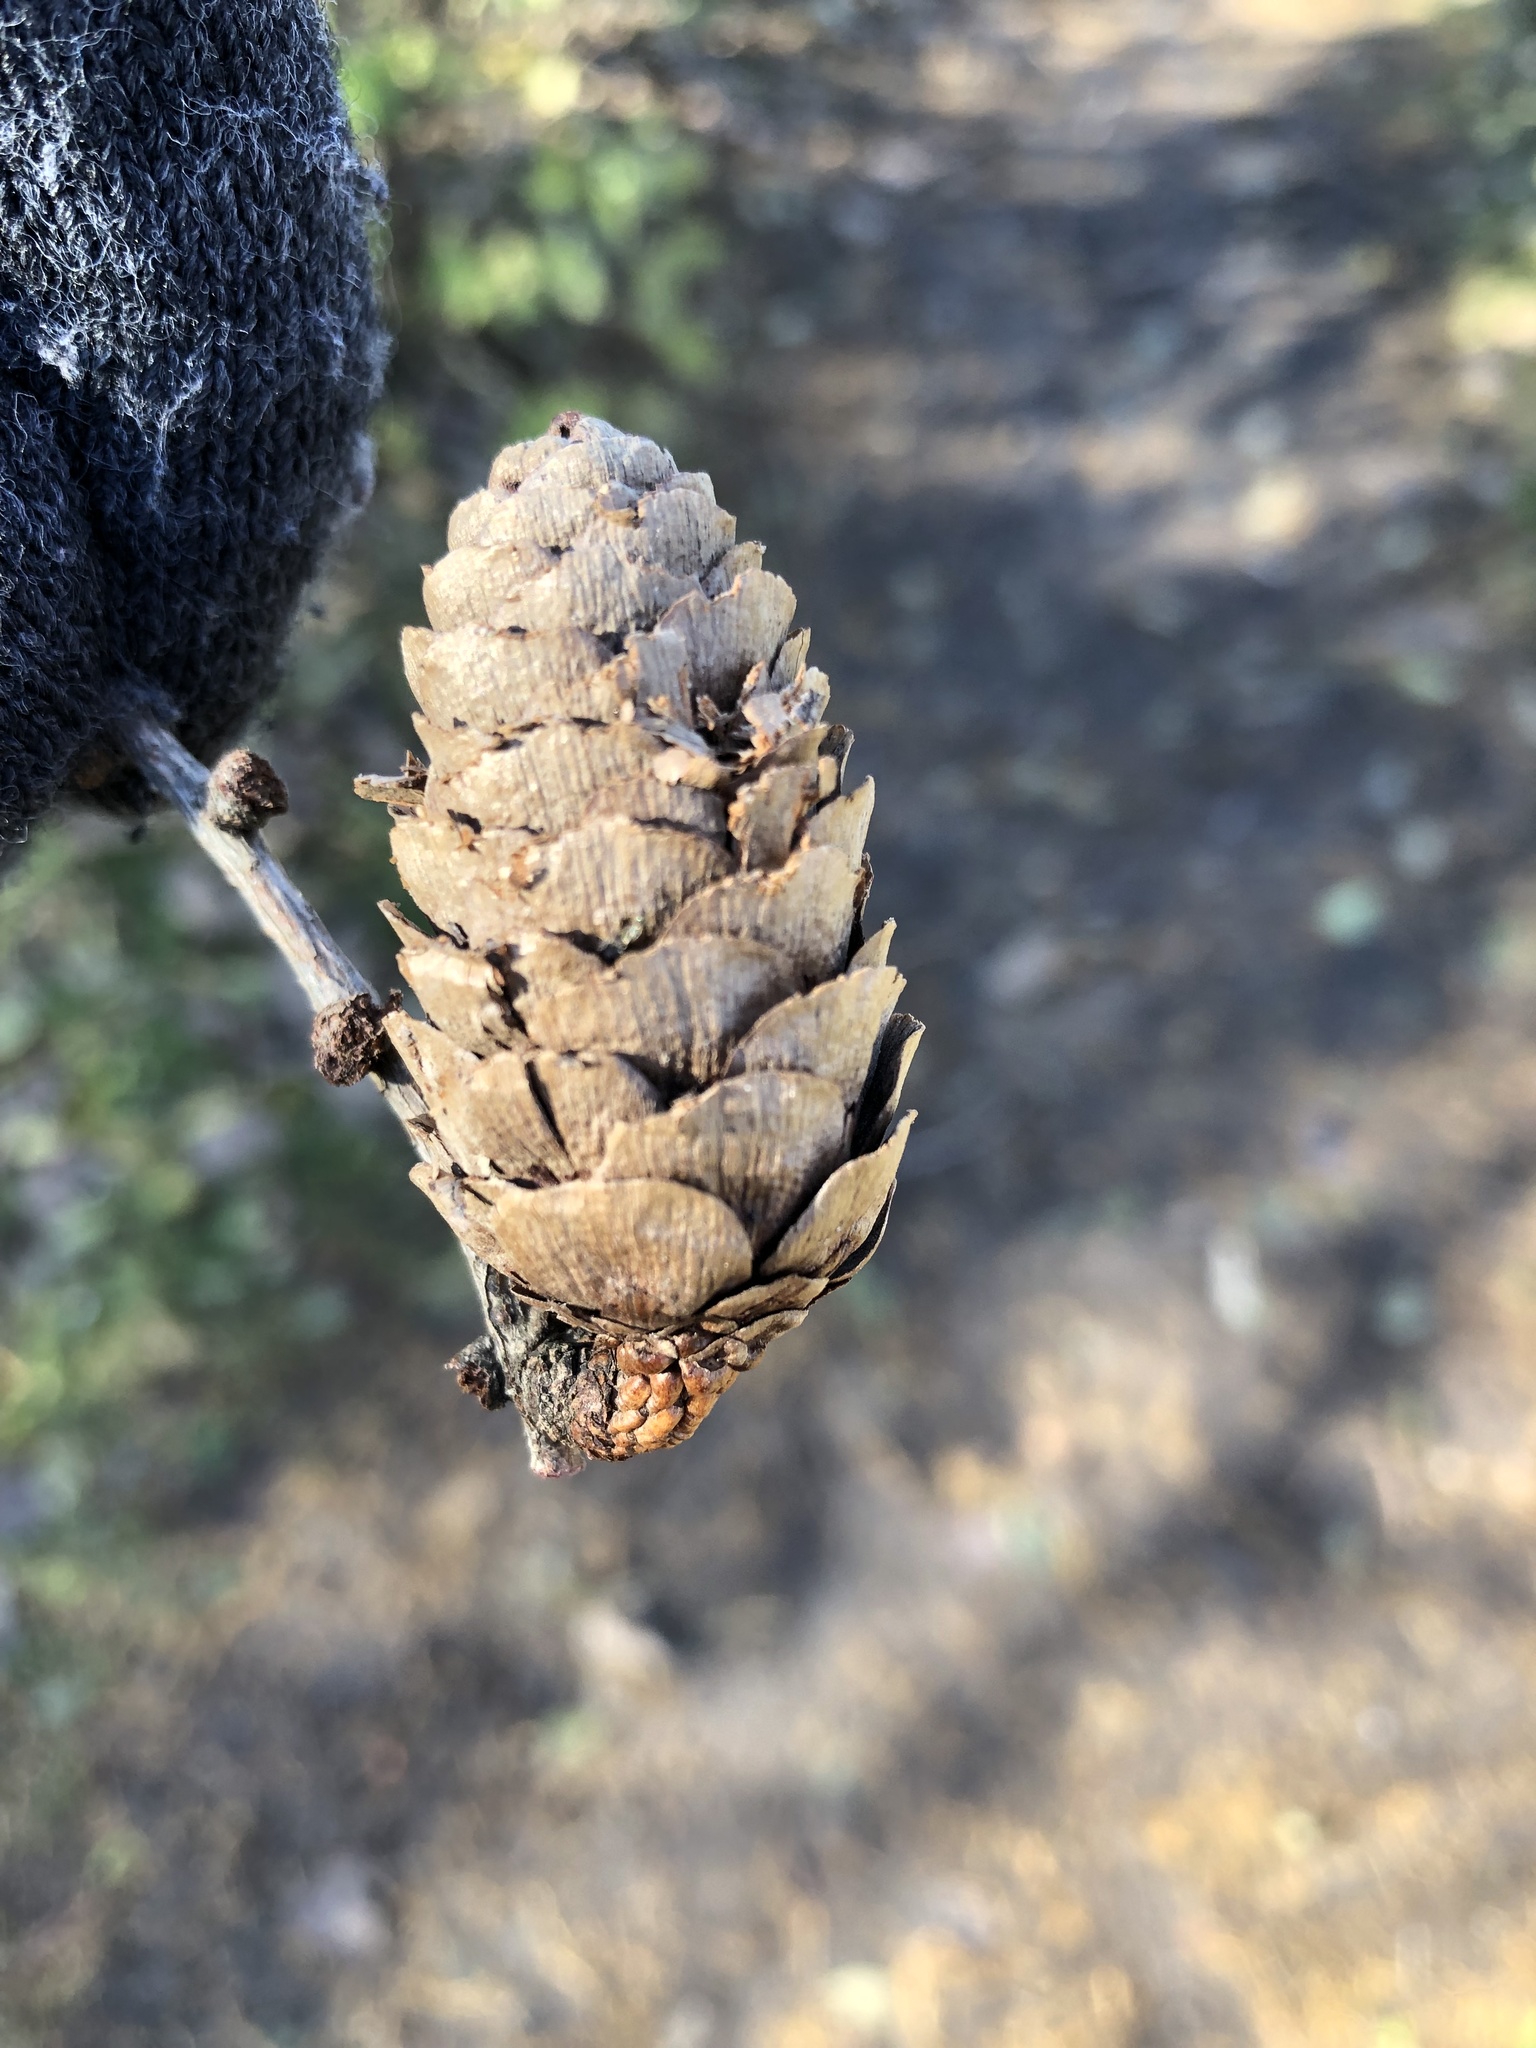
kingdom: Plantae
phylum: Tracheophyta
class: Pinopsida
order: Pinales
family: Pinaceae
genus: Larix
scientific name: Larix decidua
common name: European larch
